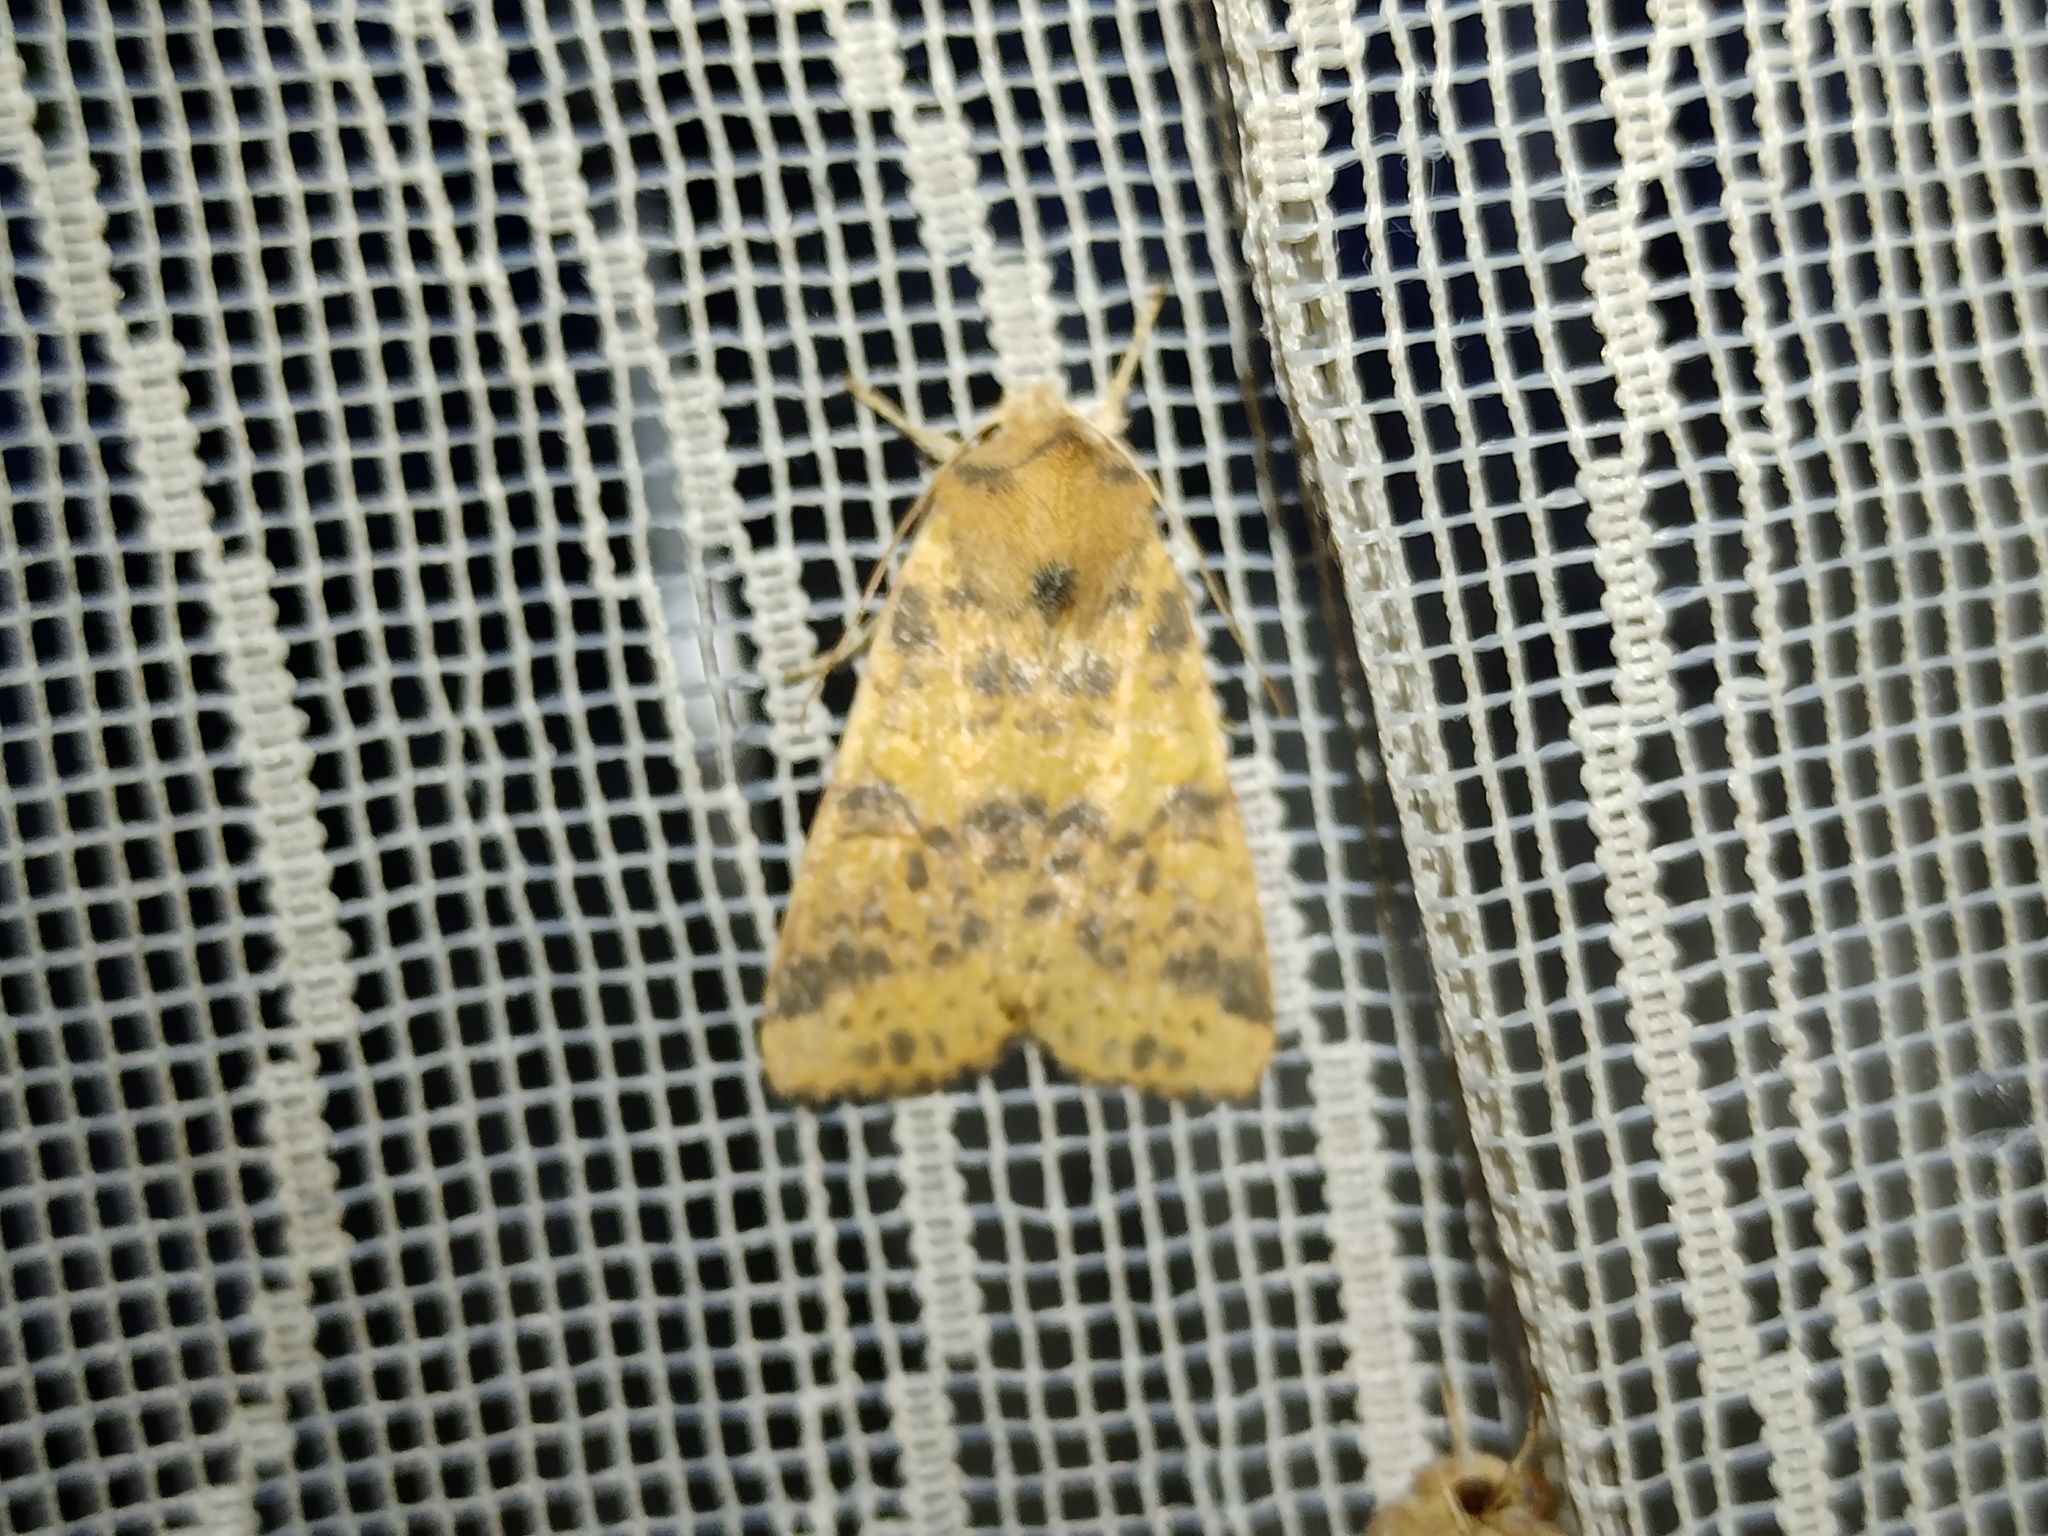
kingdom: Animalia
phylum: Arthropoda
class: Insecta
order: Lepidoptera
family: Noctuidae
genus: Xanthia
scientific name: Xanthia gilvago
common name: Dusky-lemon sallow
